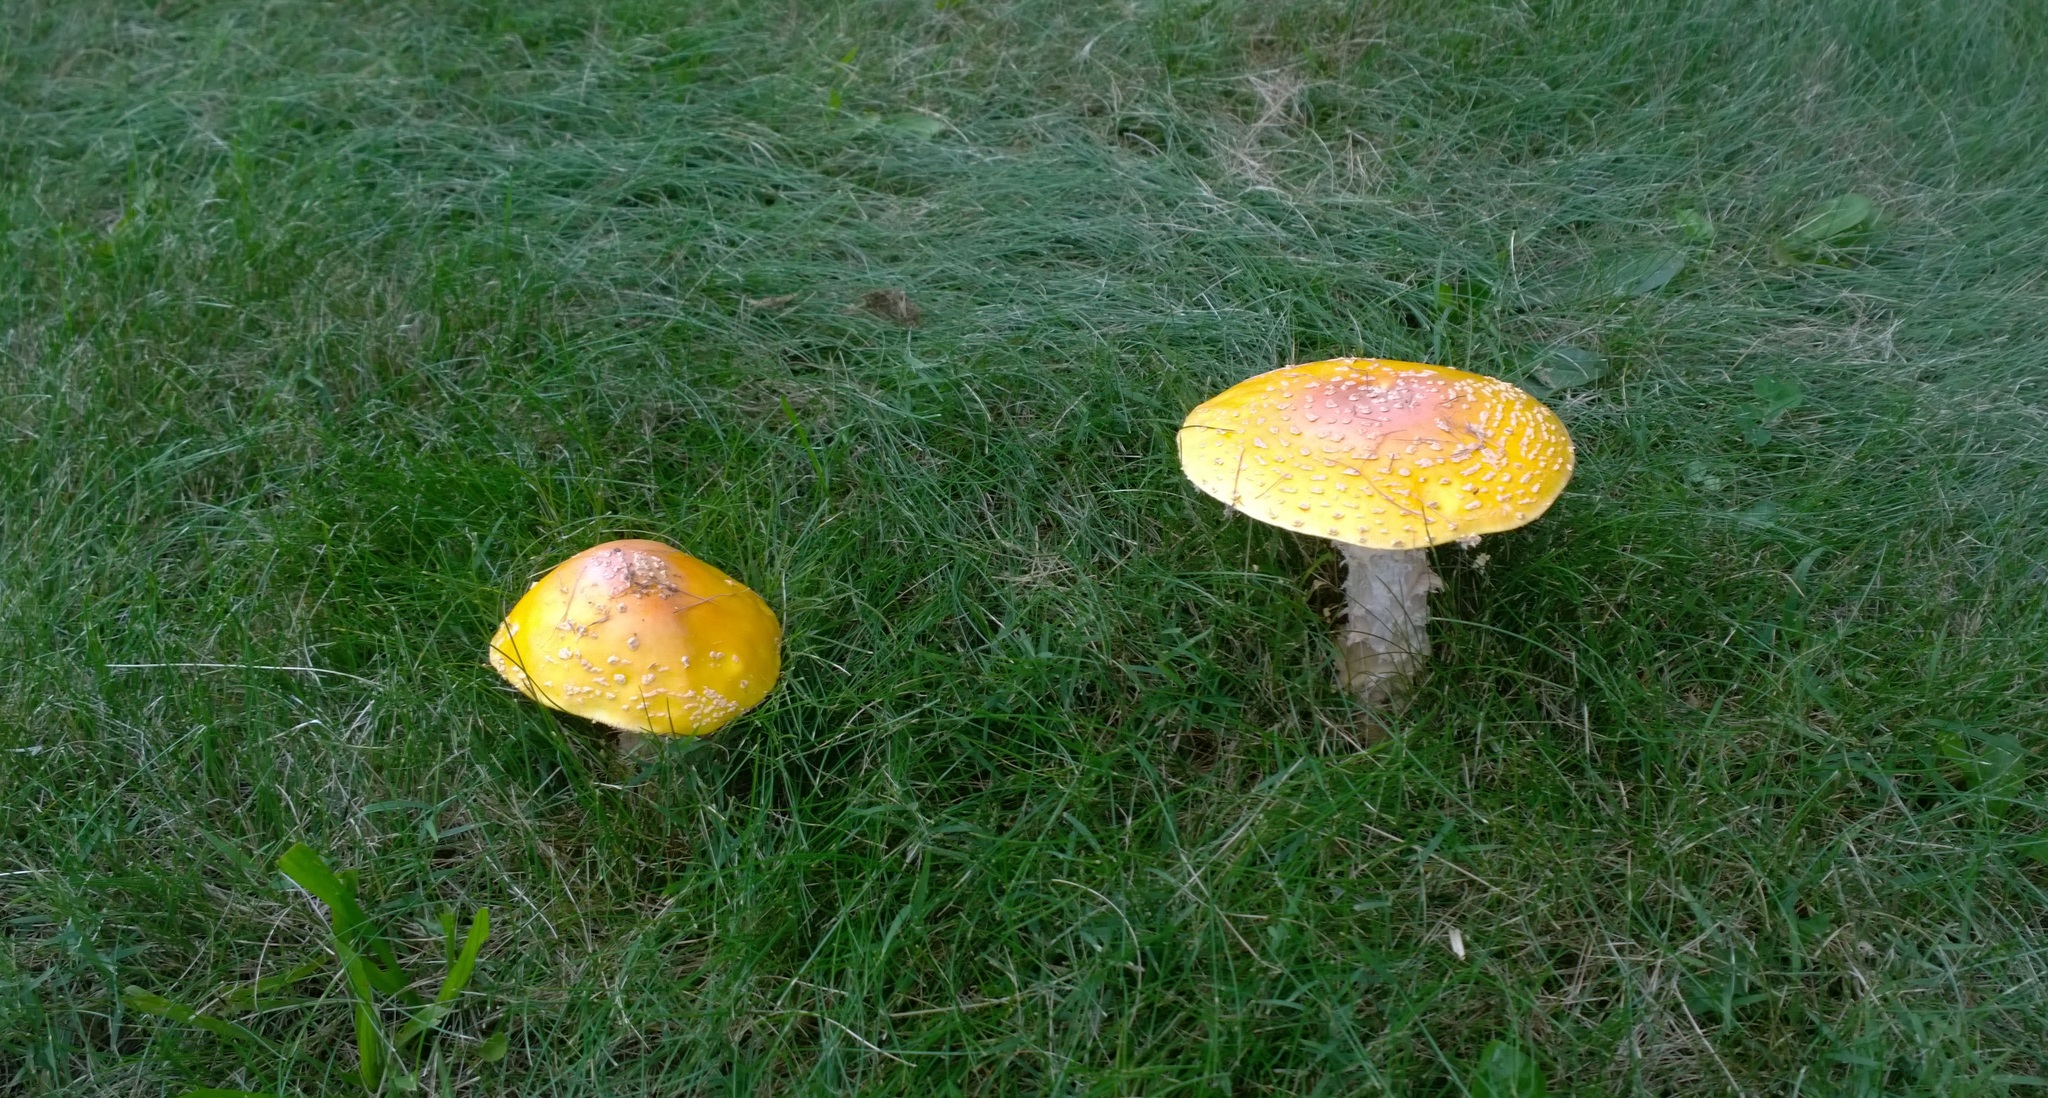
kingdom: Fungi
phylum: Basidiomycota
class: Agaricomycetes
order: Agaricales
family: Amanitaceae
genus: Amanita
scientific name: Amanita muscaria
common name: Fly agaric
